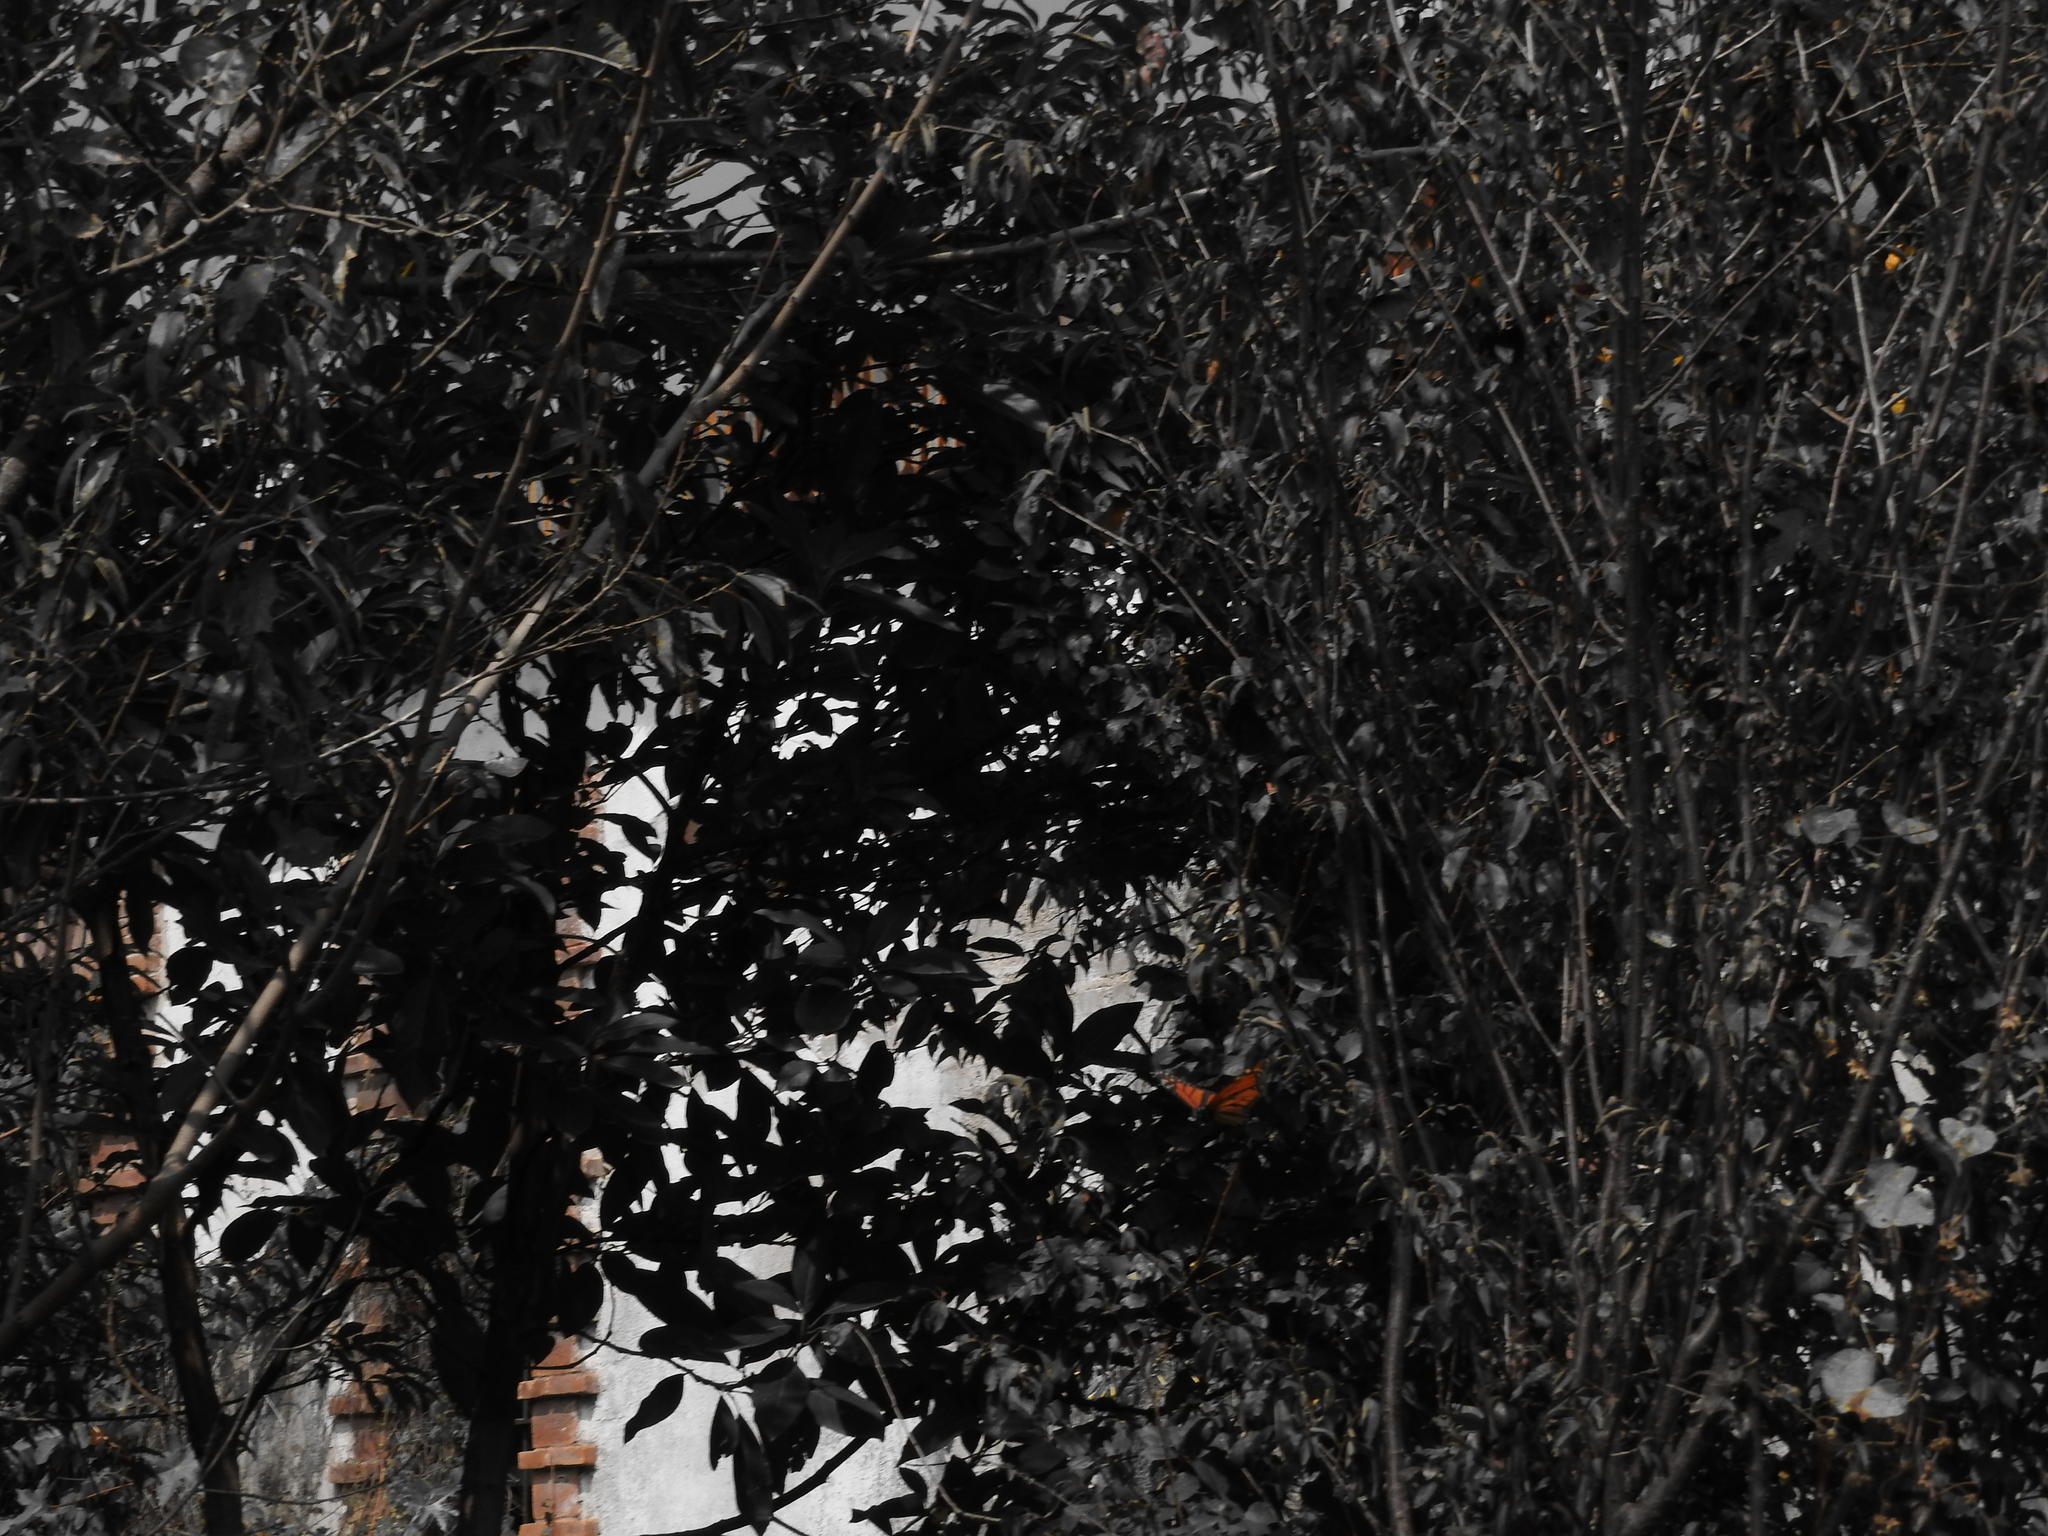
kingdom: Animalia
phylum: Arthropoda
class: Insecta
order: Lepidoptera
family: Nymphalidae
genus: Danaus
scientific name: Danaus plexippus
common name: Monarch
